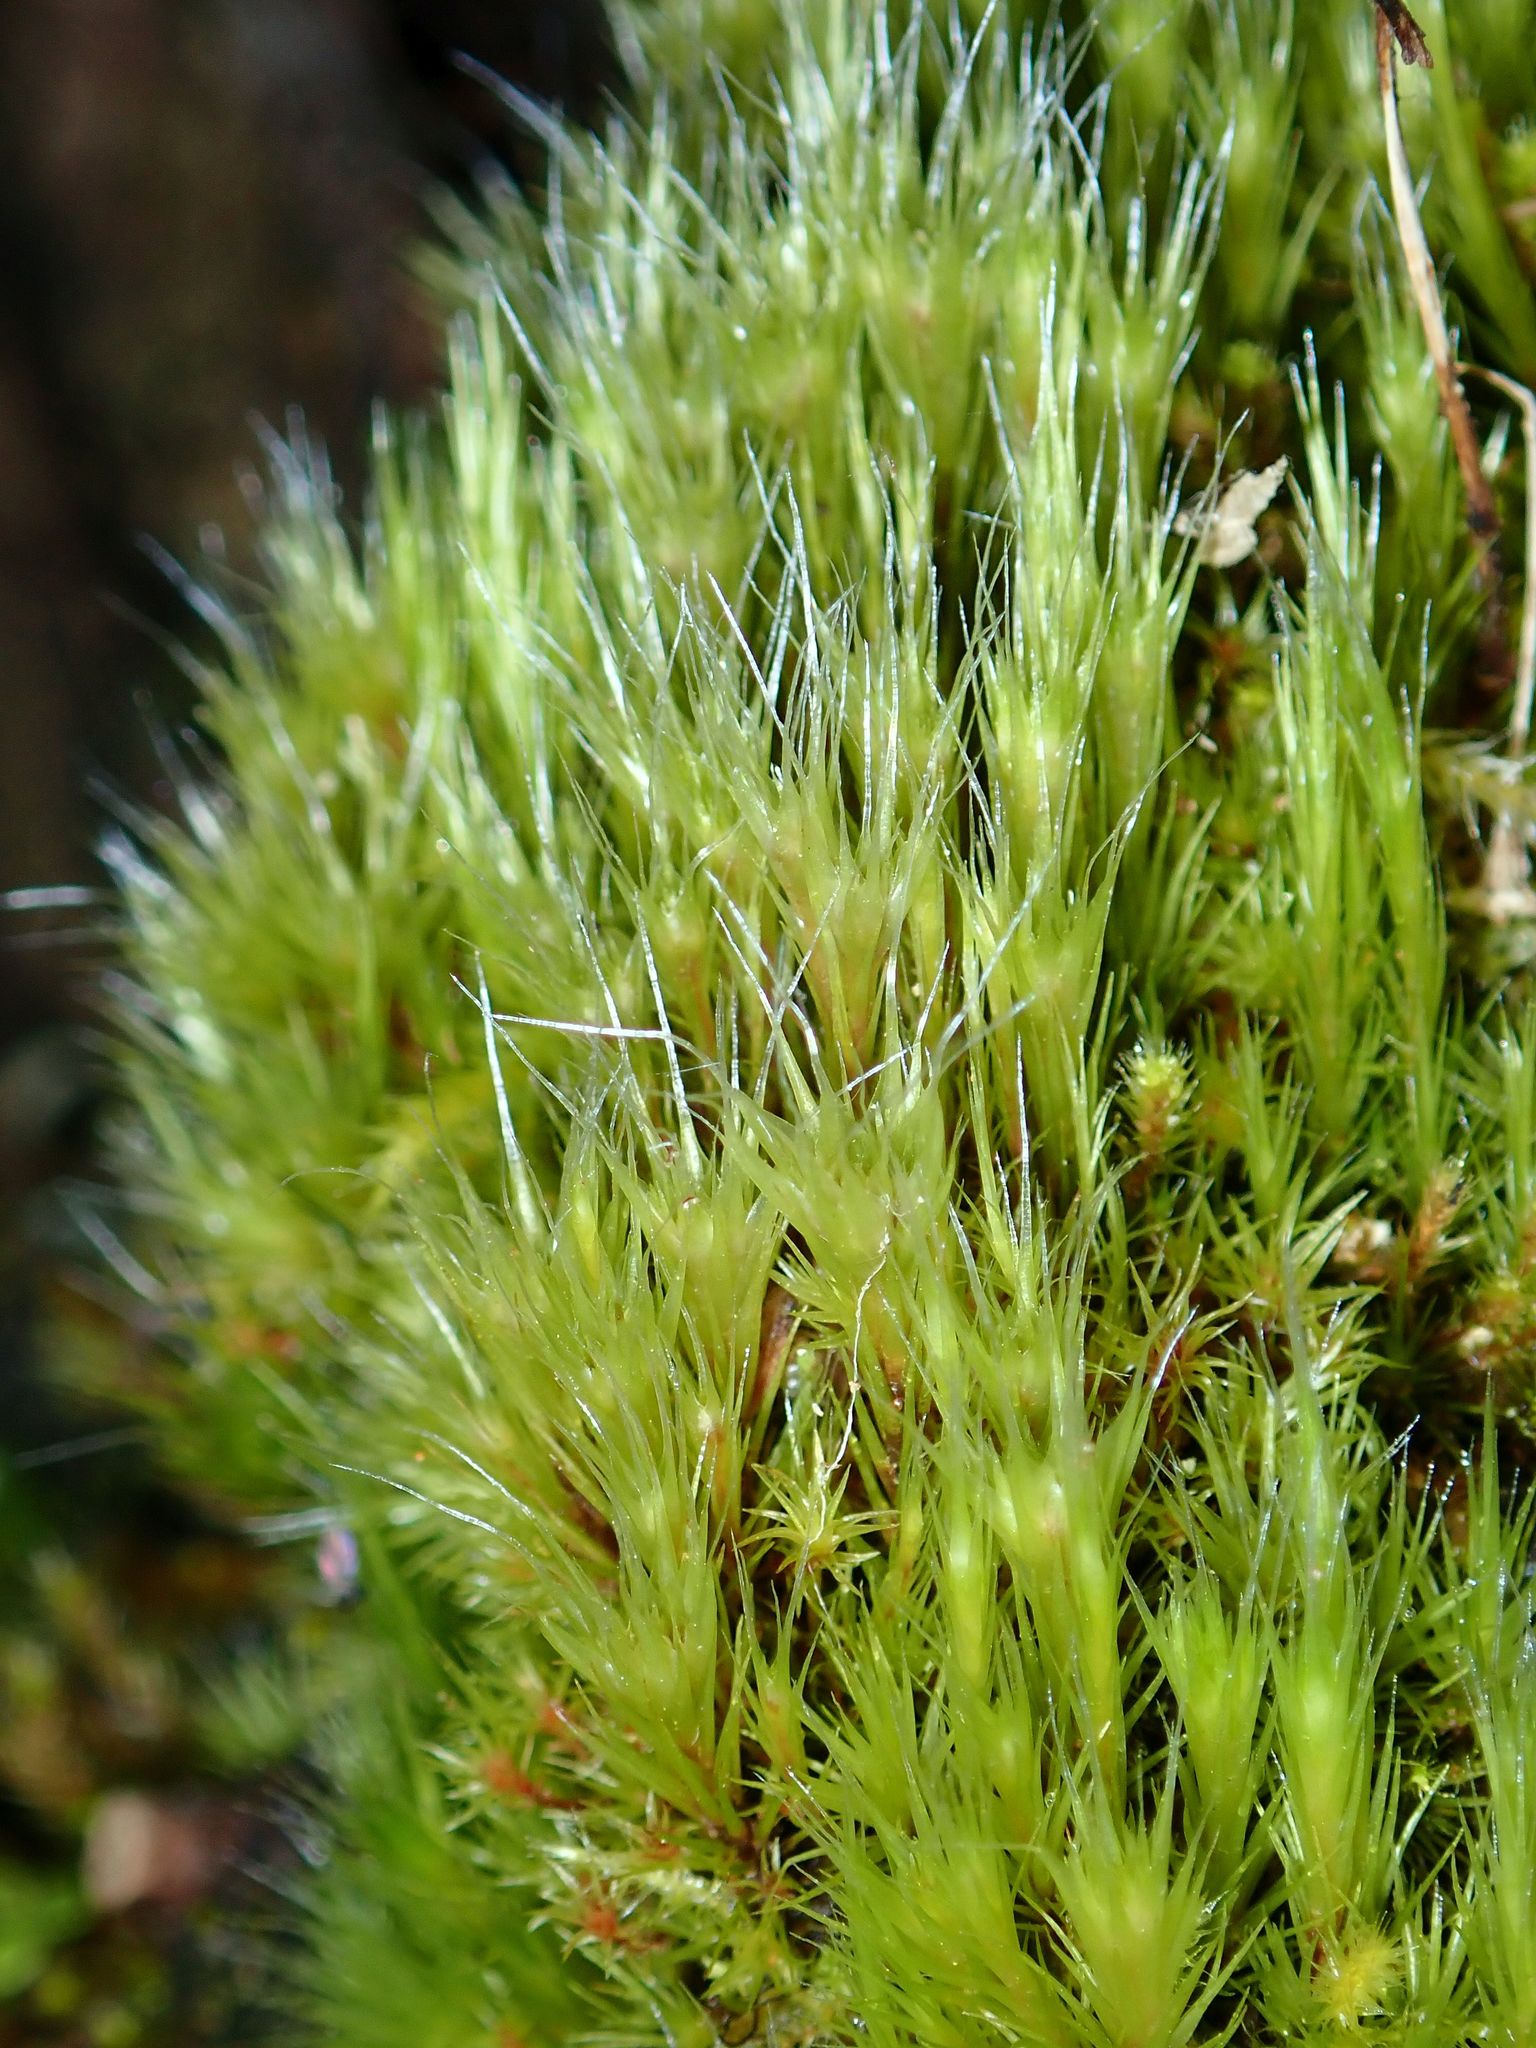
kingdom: Plantae
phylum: Bryophyta
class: Bryopsida
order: Dicranales
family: Leucobryaceae
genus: Campylopus
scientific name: Campylopus introflexus
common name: Heath star moss
